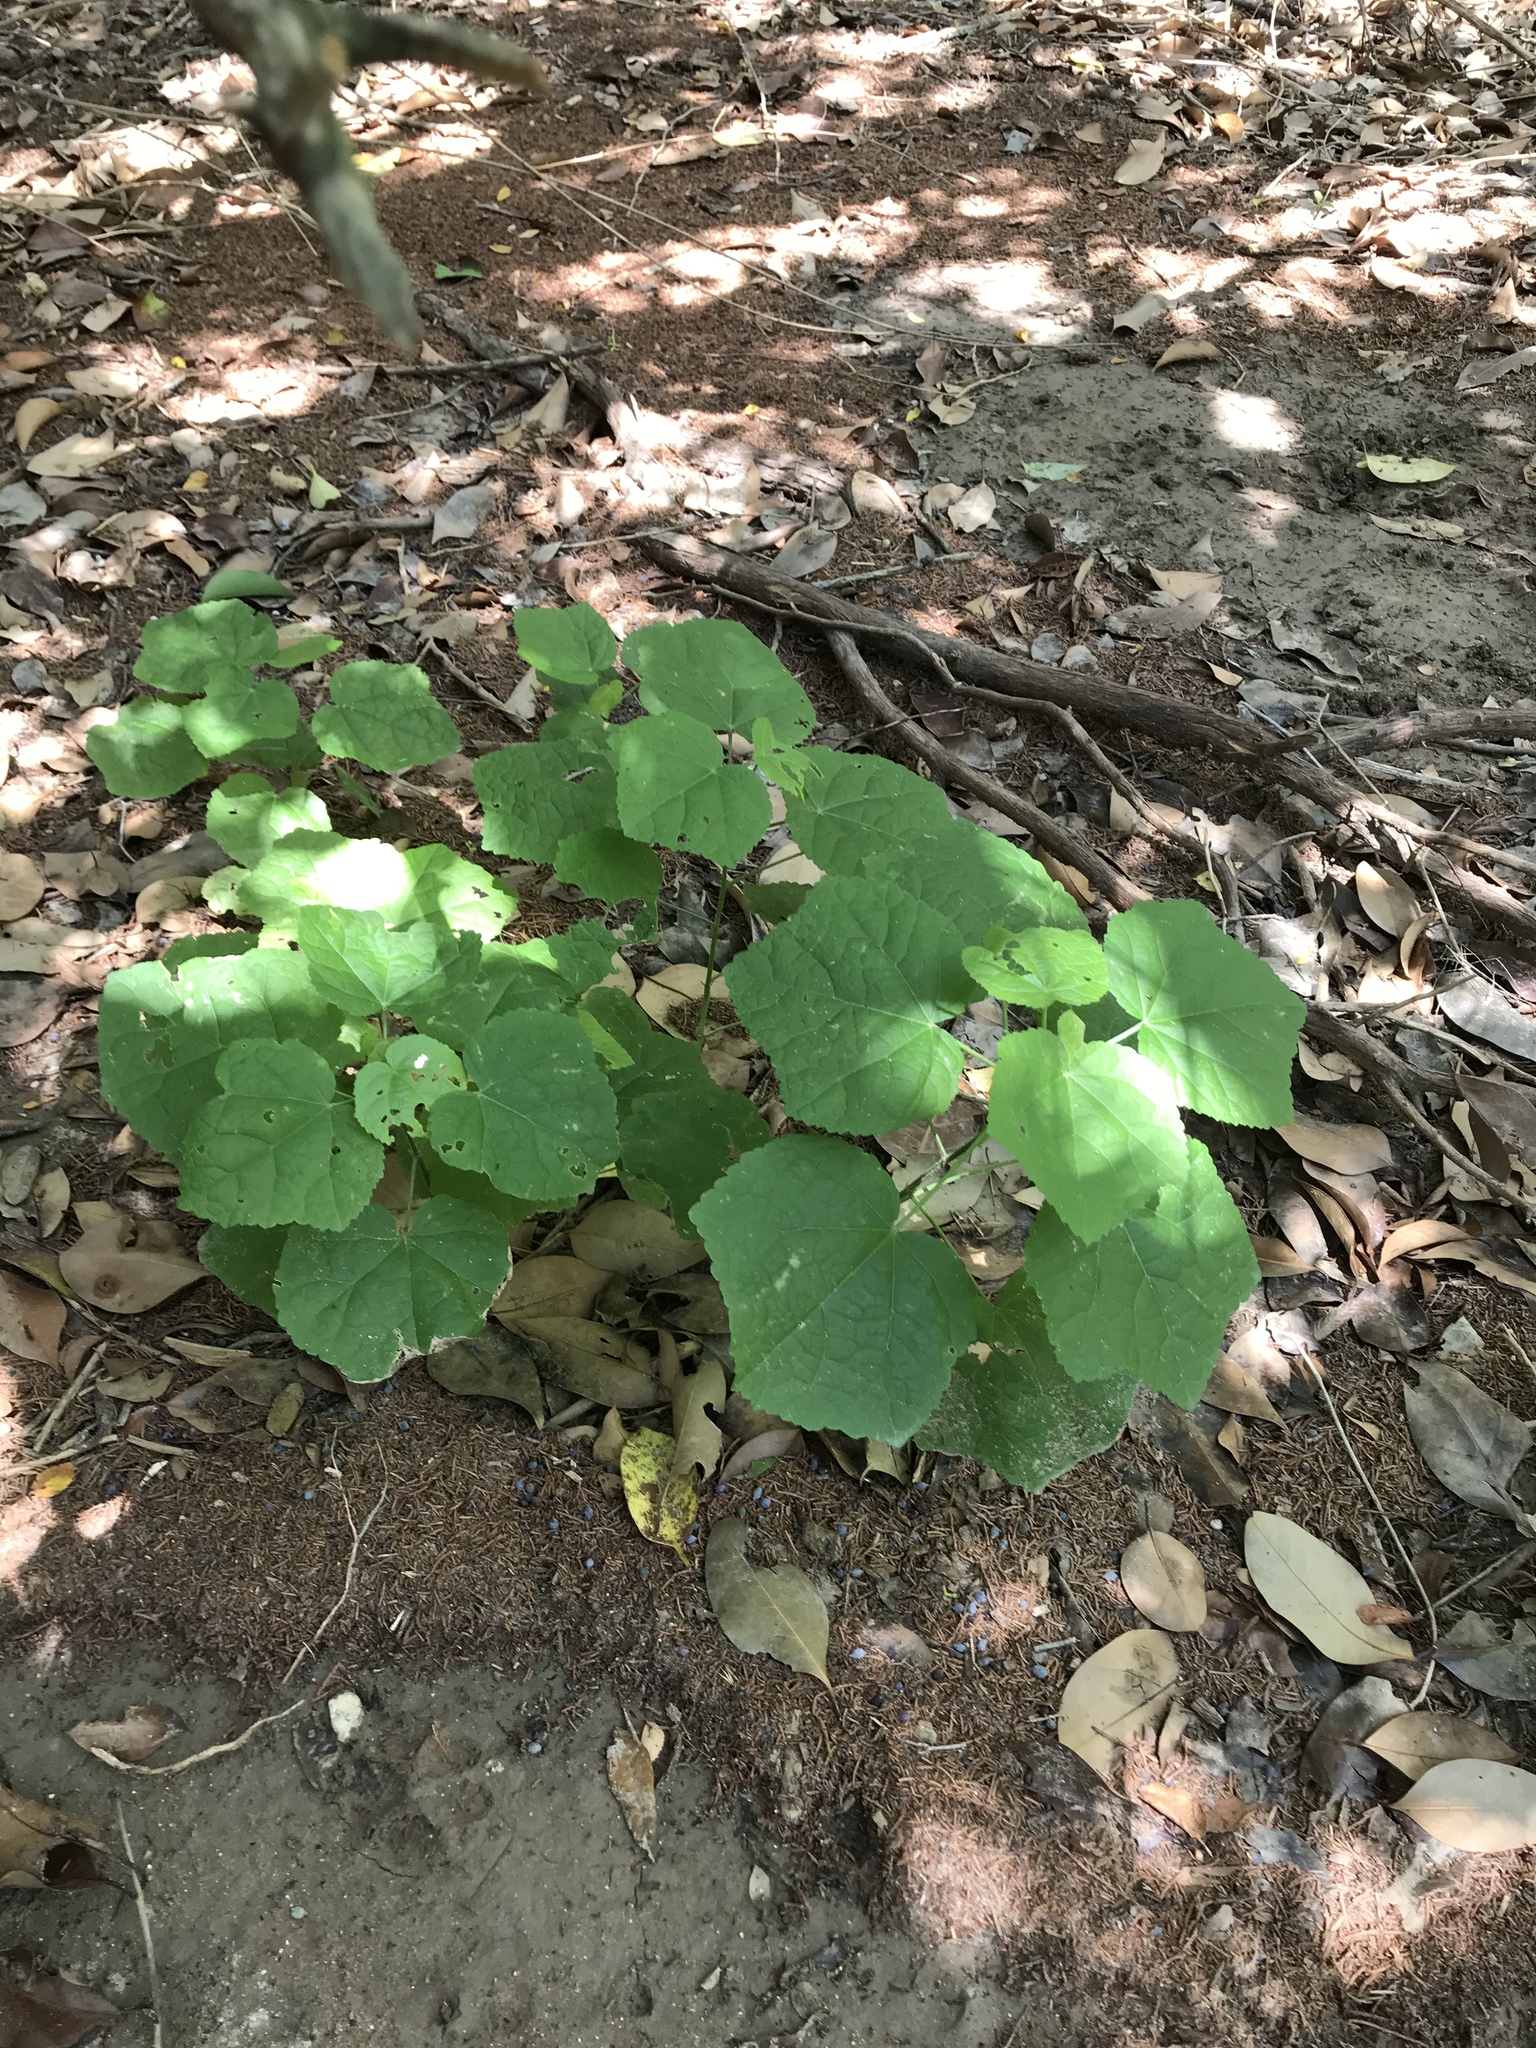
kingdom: Plantae
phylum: Tracheophyta
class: Magnoliopsida
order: Malvales
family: Malvaceae
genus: Malvaviscus
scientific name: Malvaviscus arboreus
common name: Wax mallow
